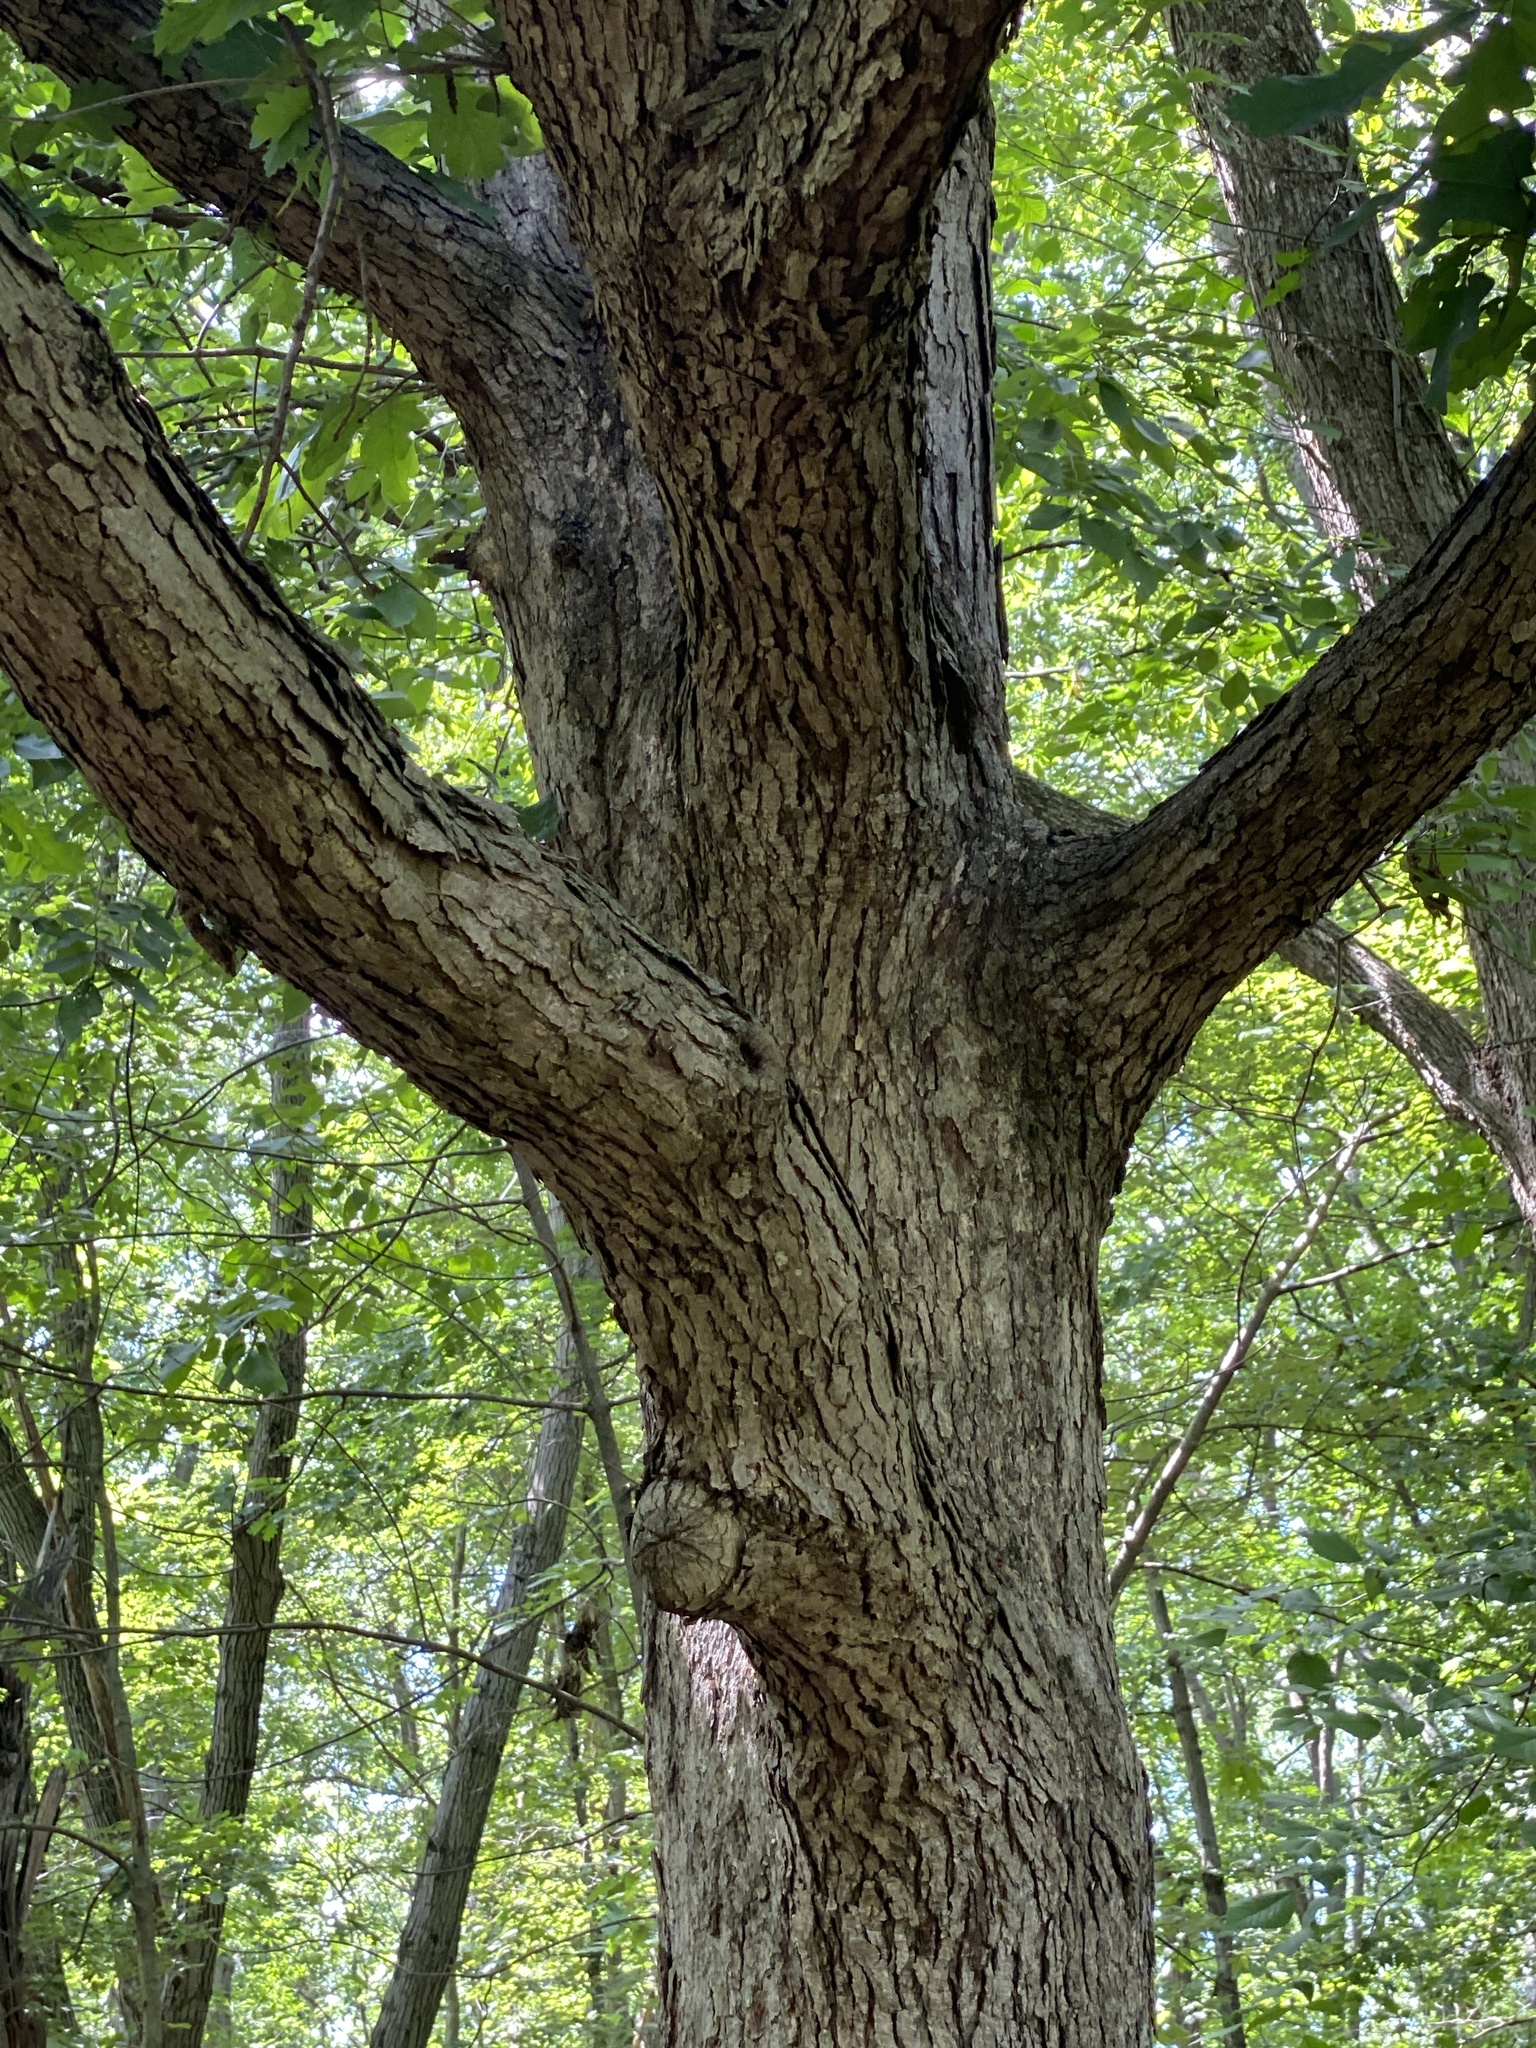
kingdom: Plantae
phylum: Tracheophyta
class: Magnoliopsida
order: Fagales
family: Fagaceae
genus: Quercus
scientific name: Quercus alba
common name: White oak
